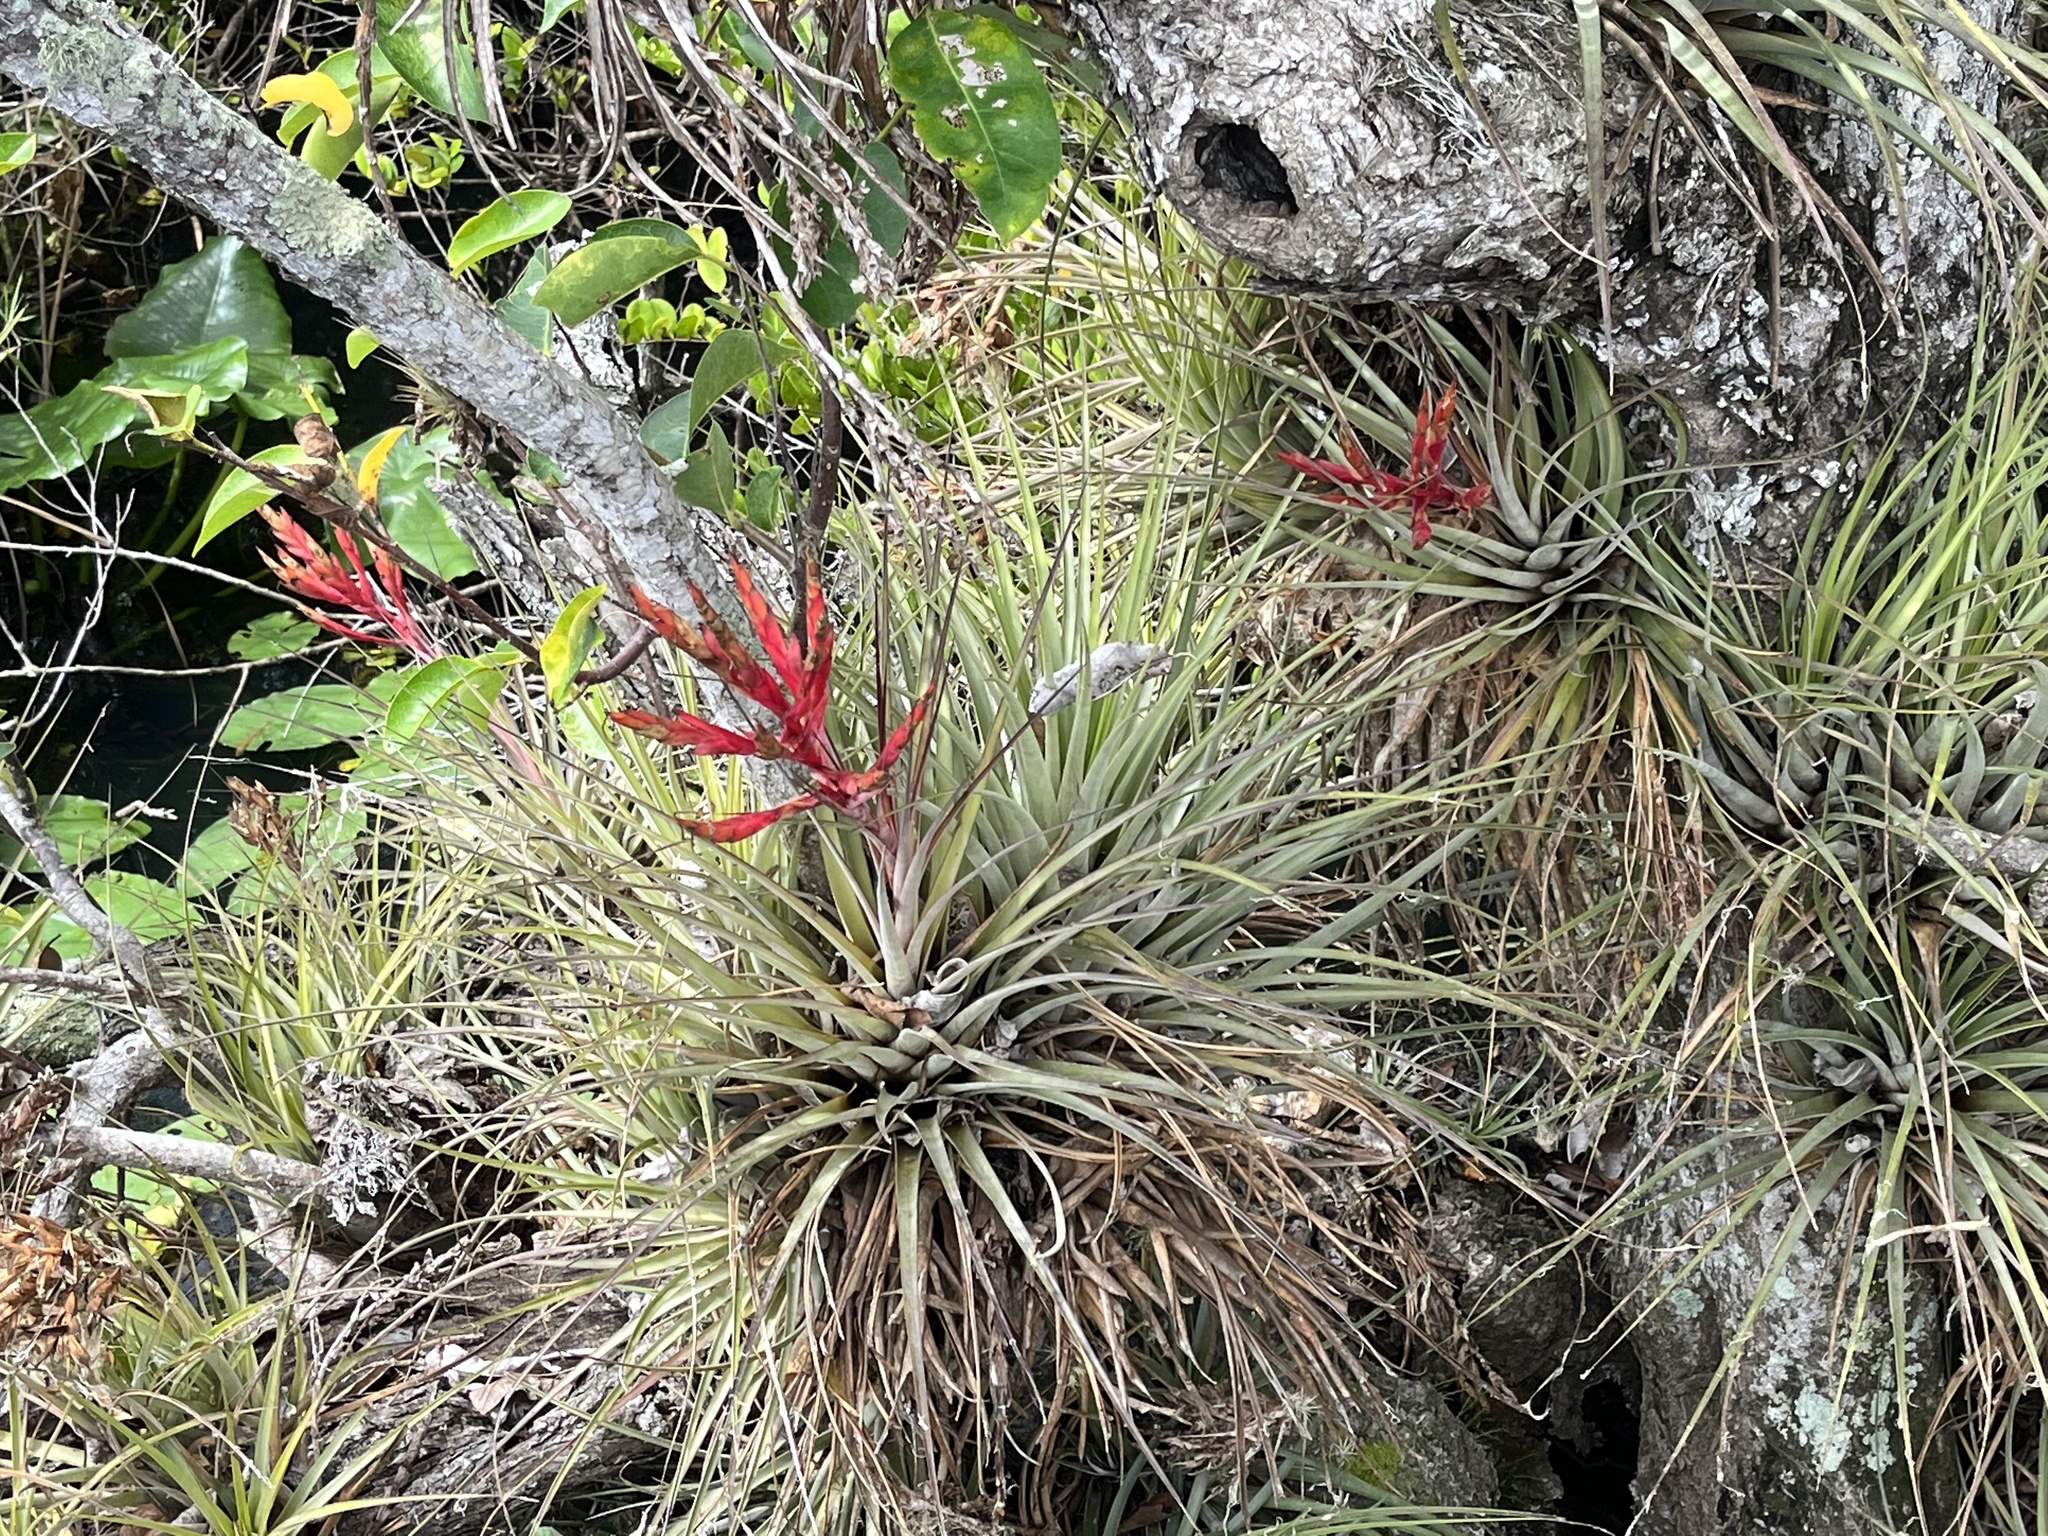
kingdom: Plantae
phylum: Tracheophyta
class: Liliopsida
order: Poales
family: Bromeliaceae
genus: Tillandsia
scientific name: Tillandsia fasciculata
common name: Giant airplant
